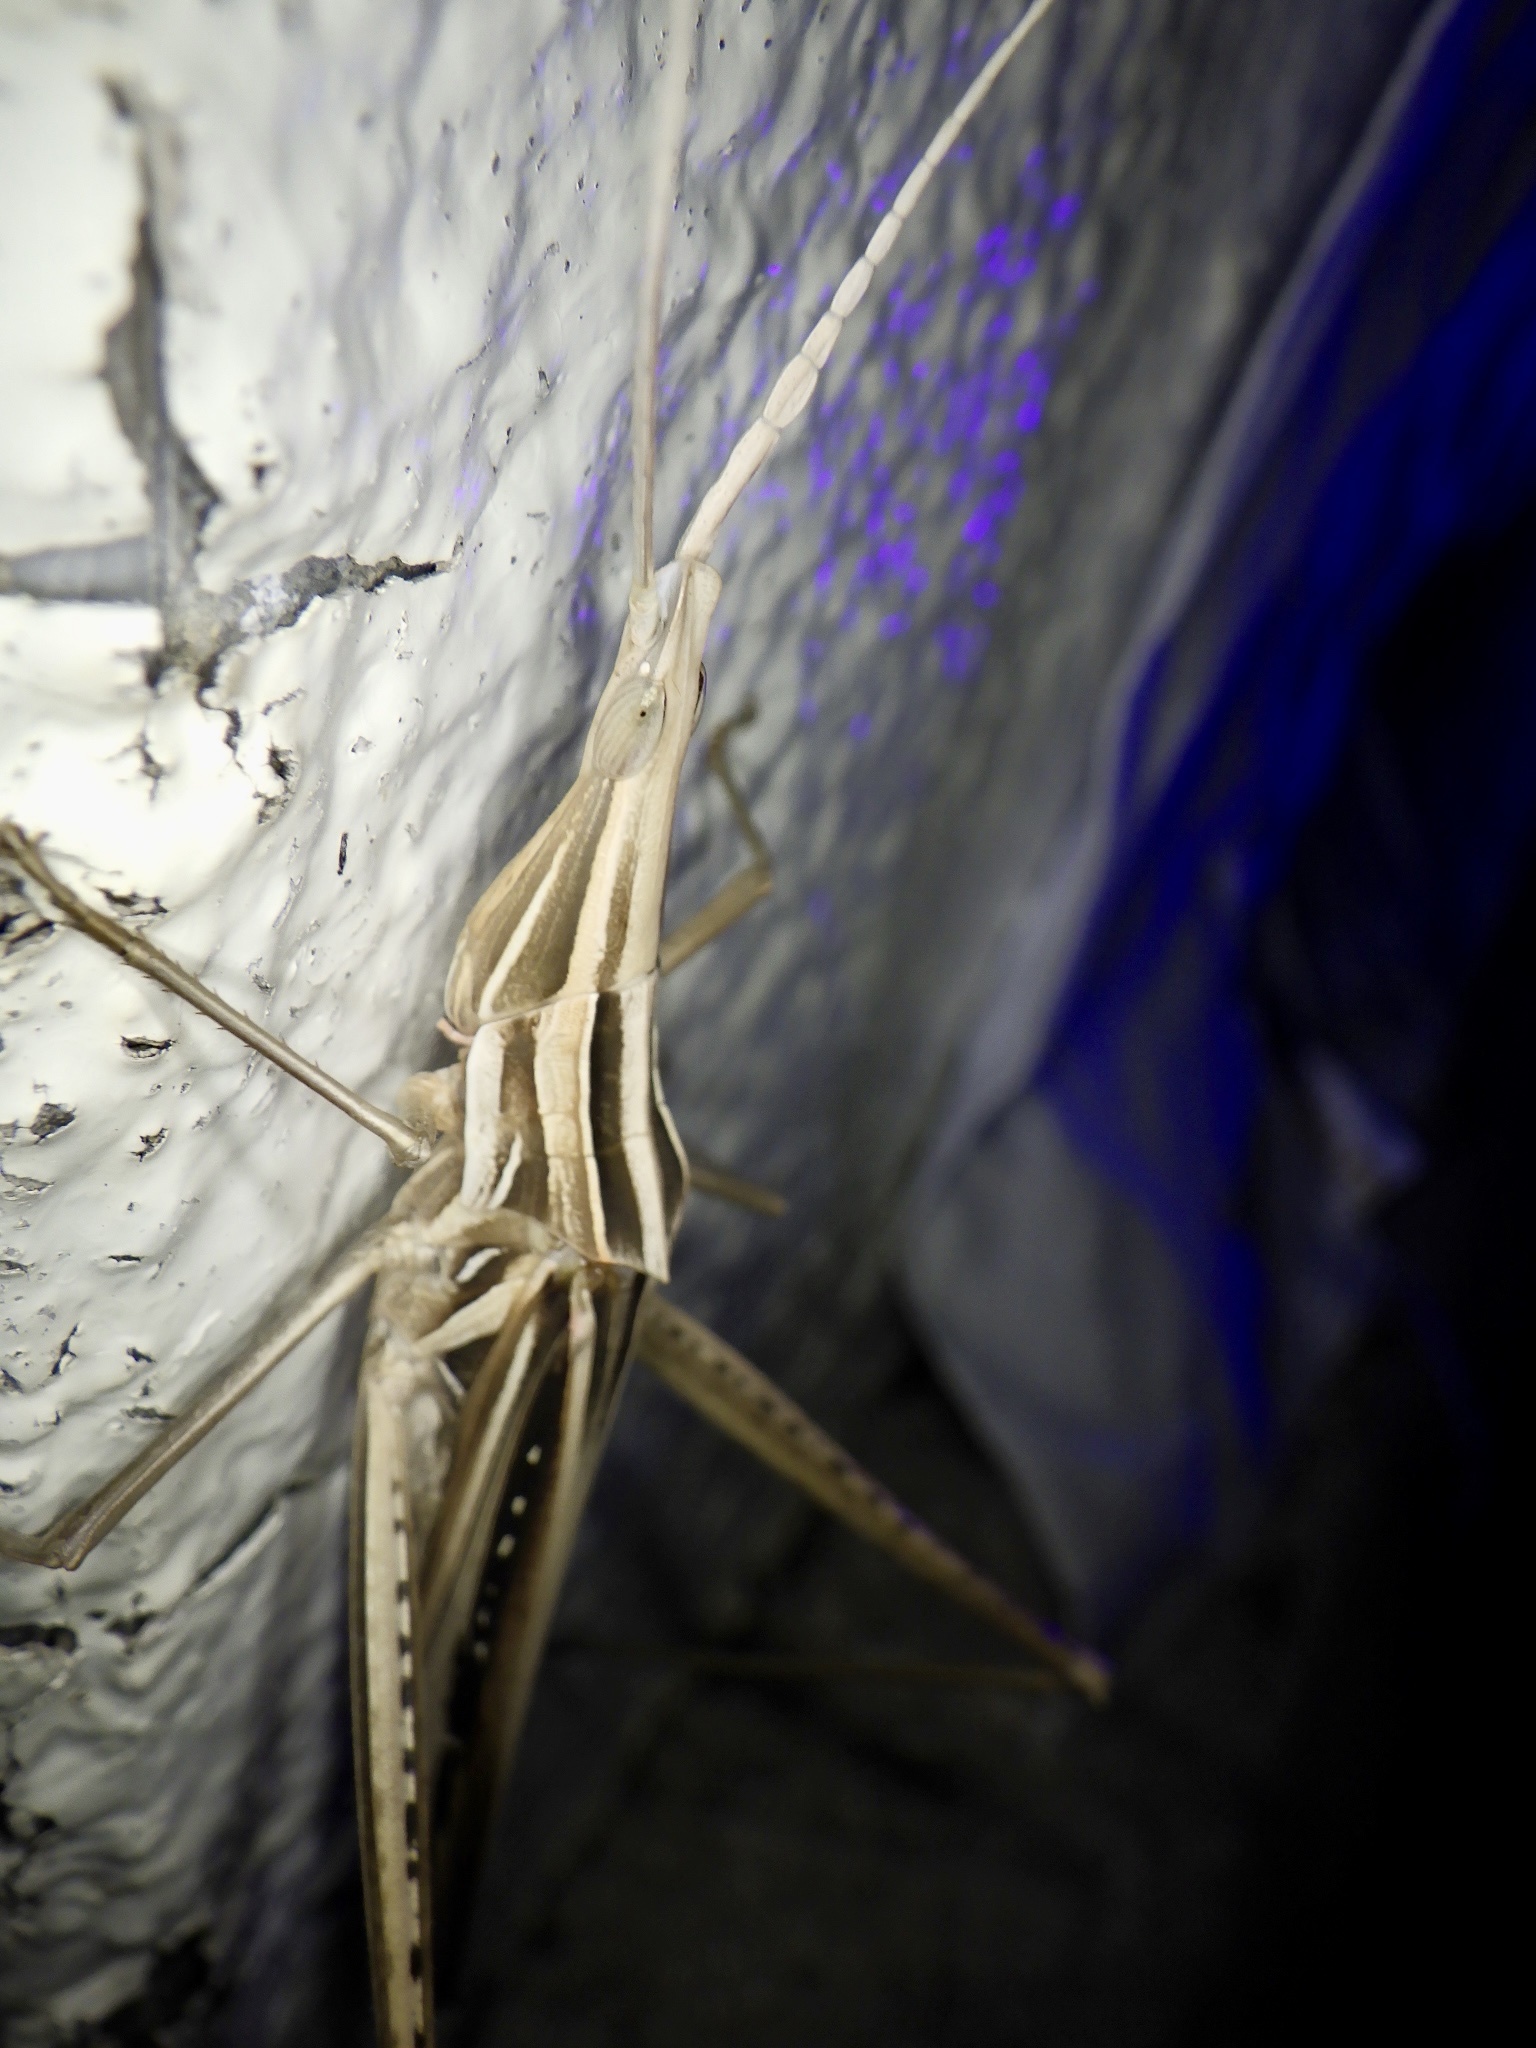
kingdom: Animalia
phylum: Arthropoda
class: Insecta
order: Orthoptera
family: Acrididae
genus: Acrida
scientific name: Acrida cinerea
